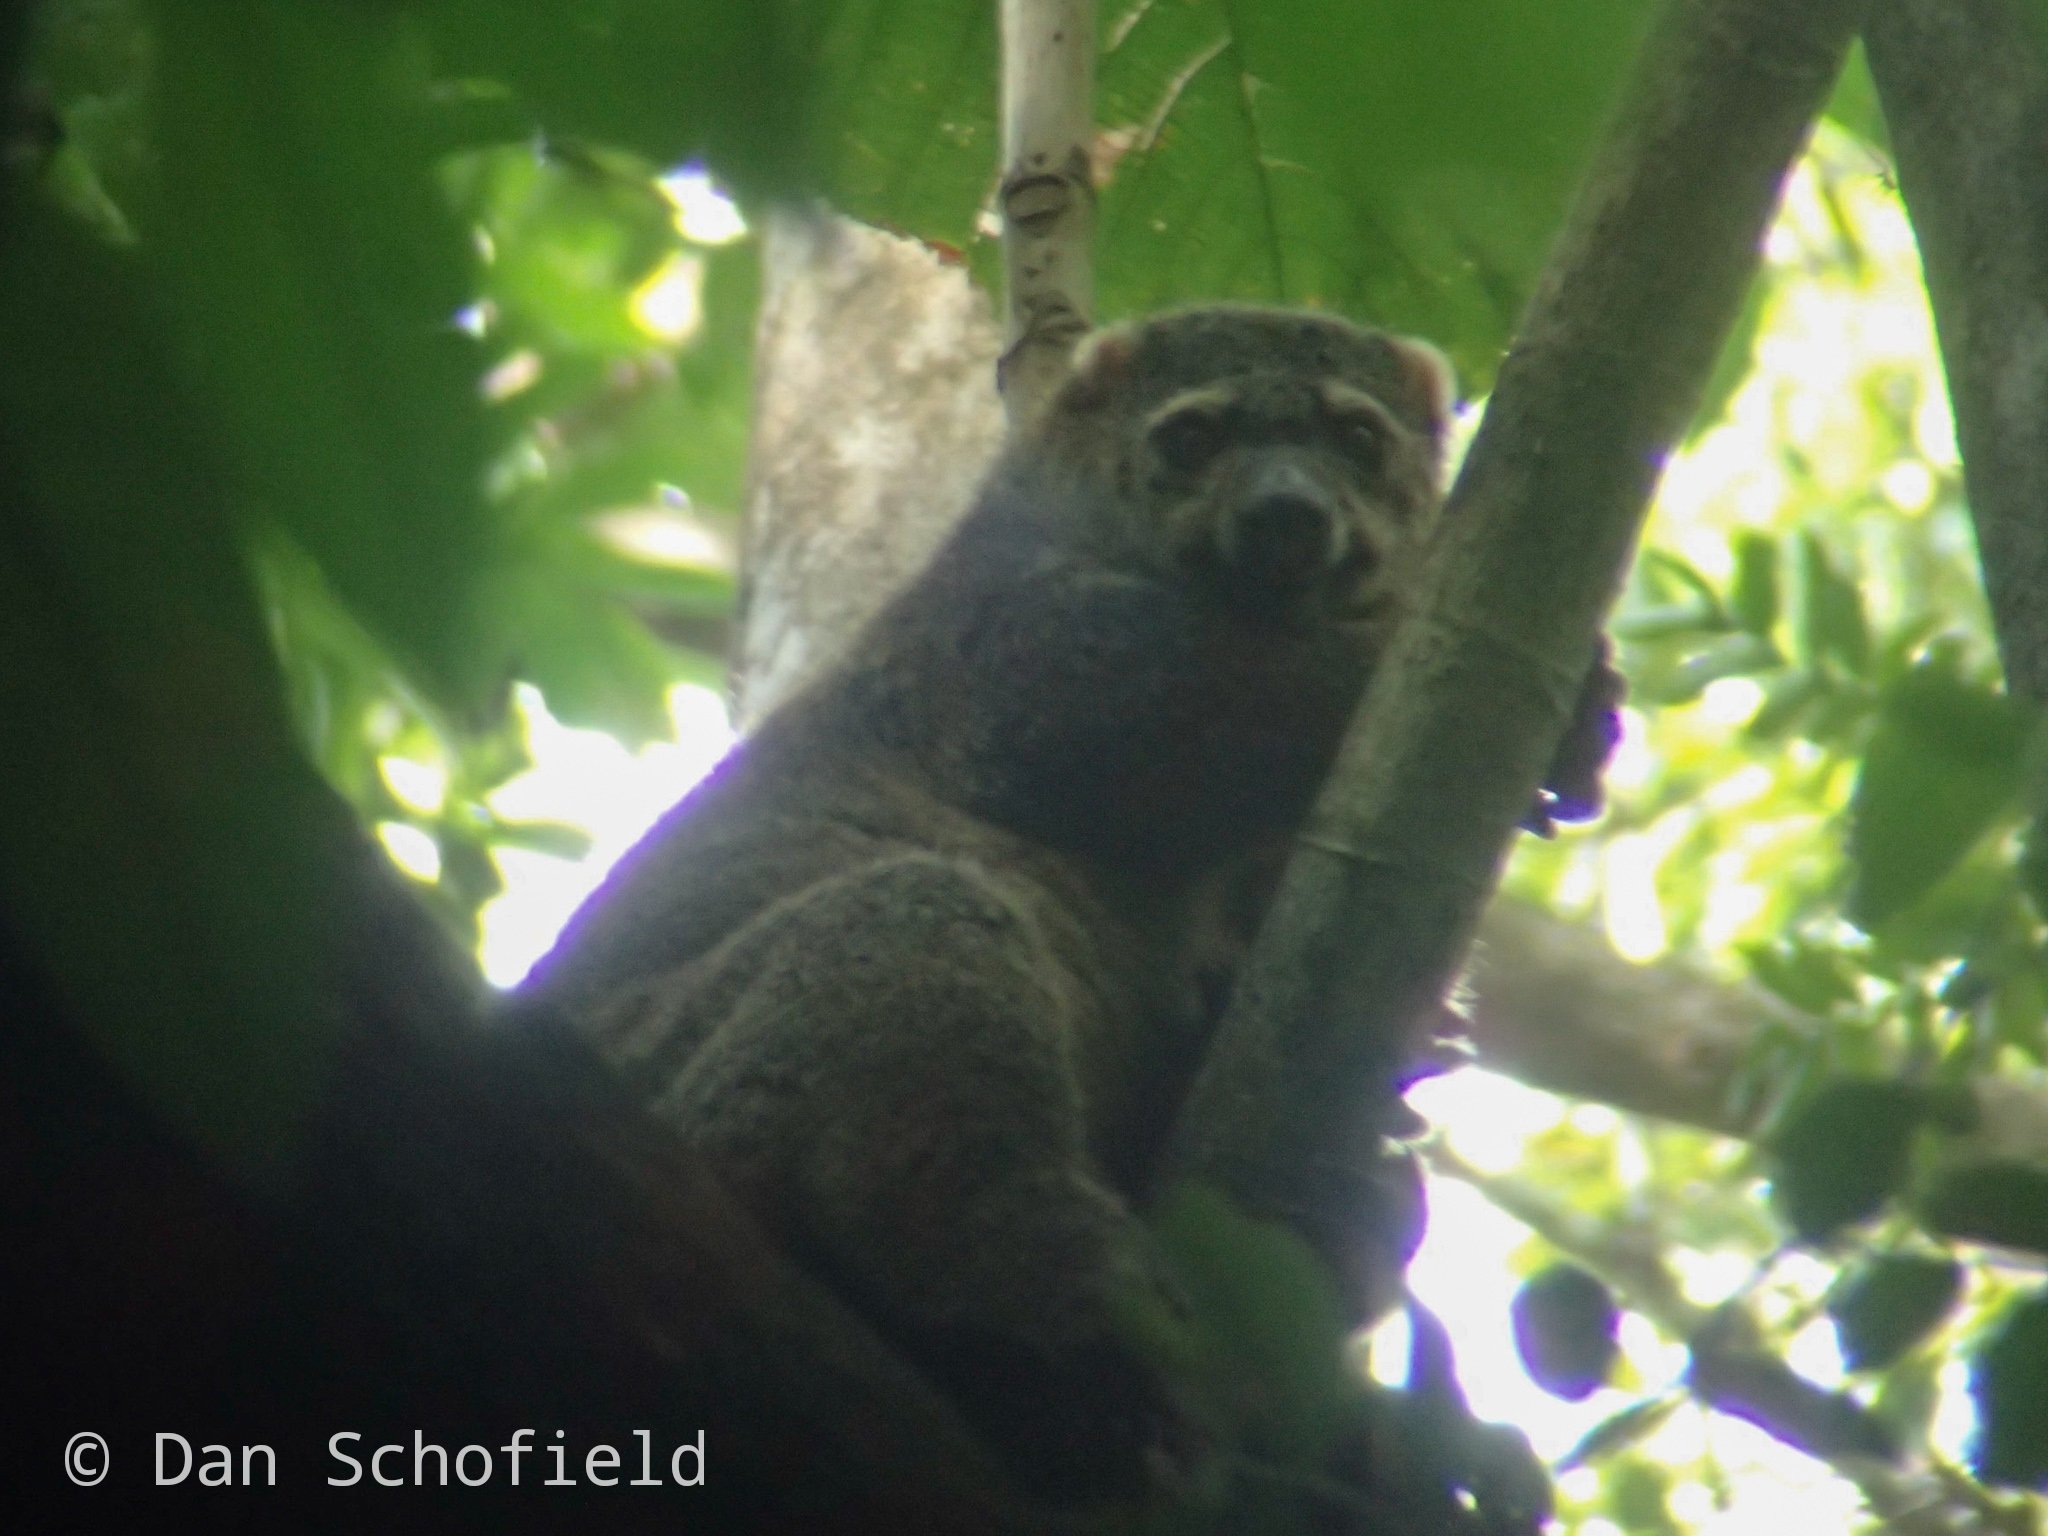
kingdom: Animalia
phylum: Chordata
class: Mammalia
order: Diprotodontia
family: Phalangeridae
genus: Ailurops
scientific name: Ailurops ursinus
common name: Sulawesi bear cuscus
